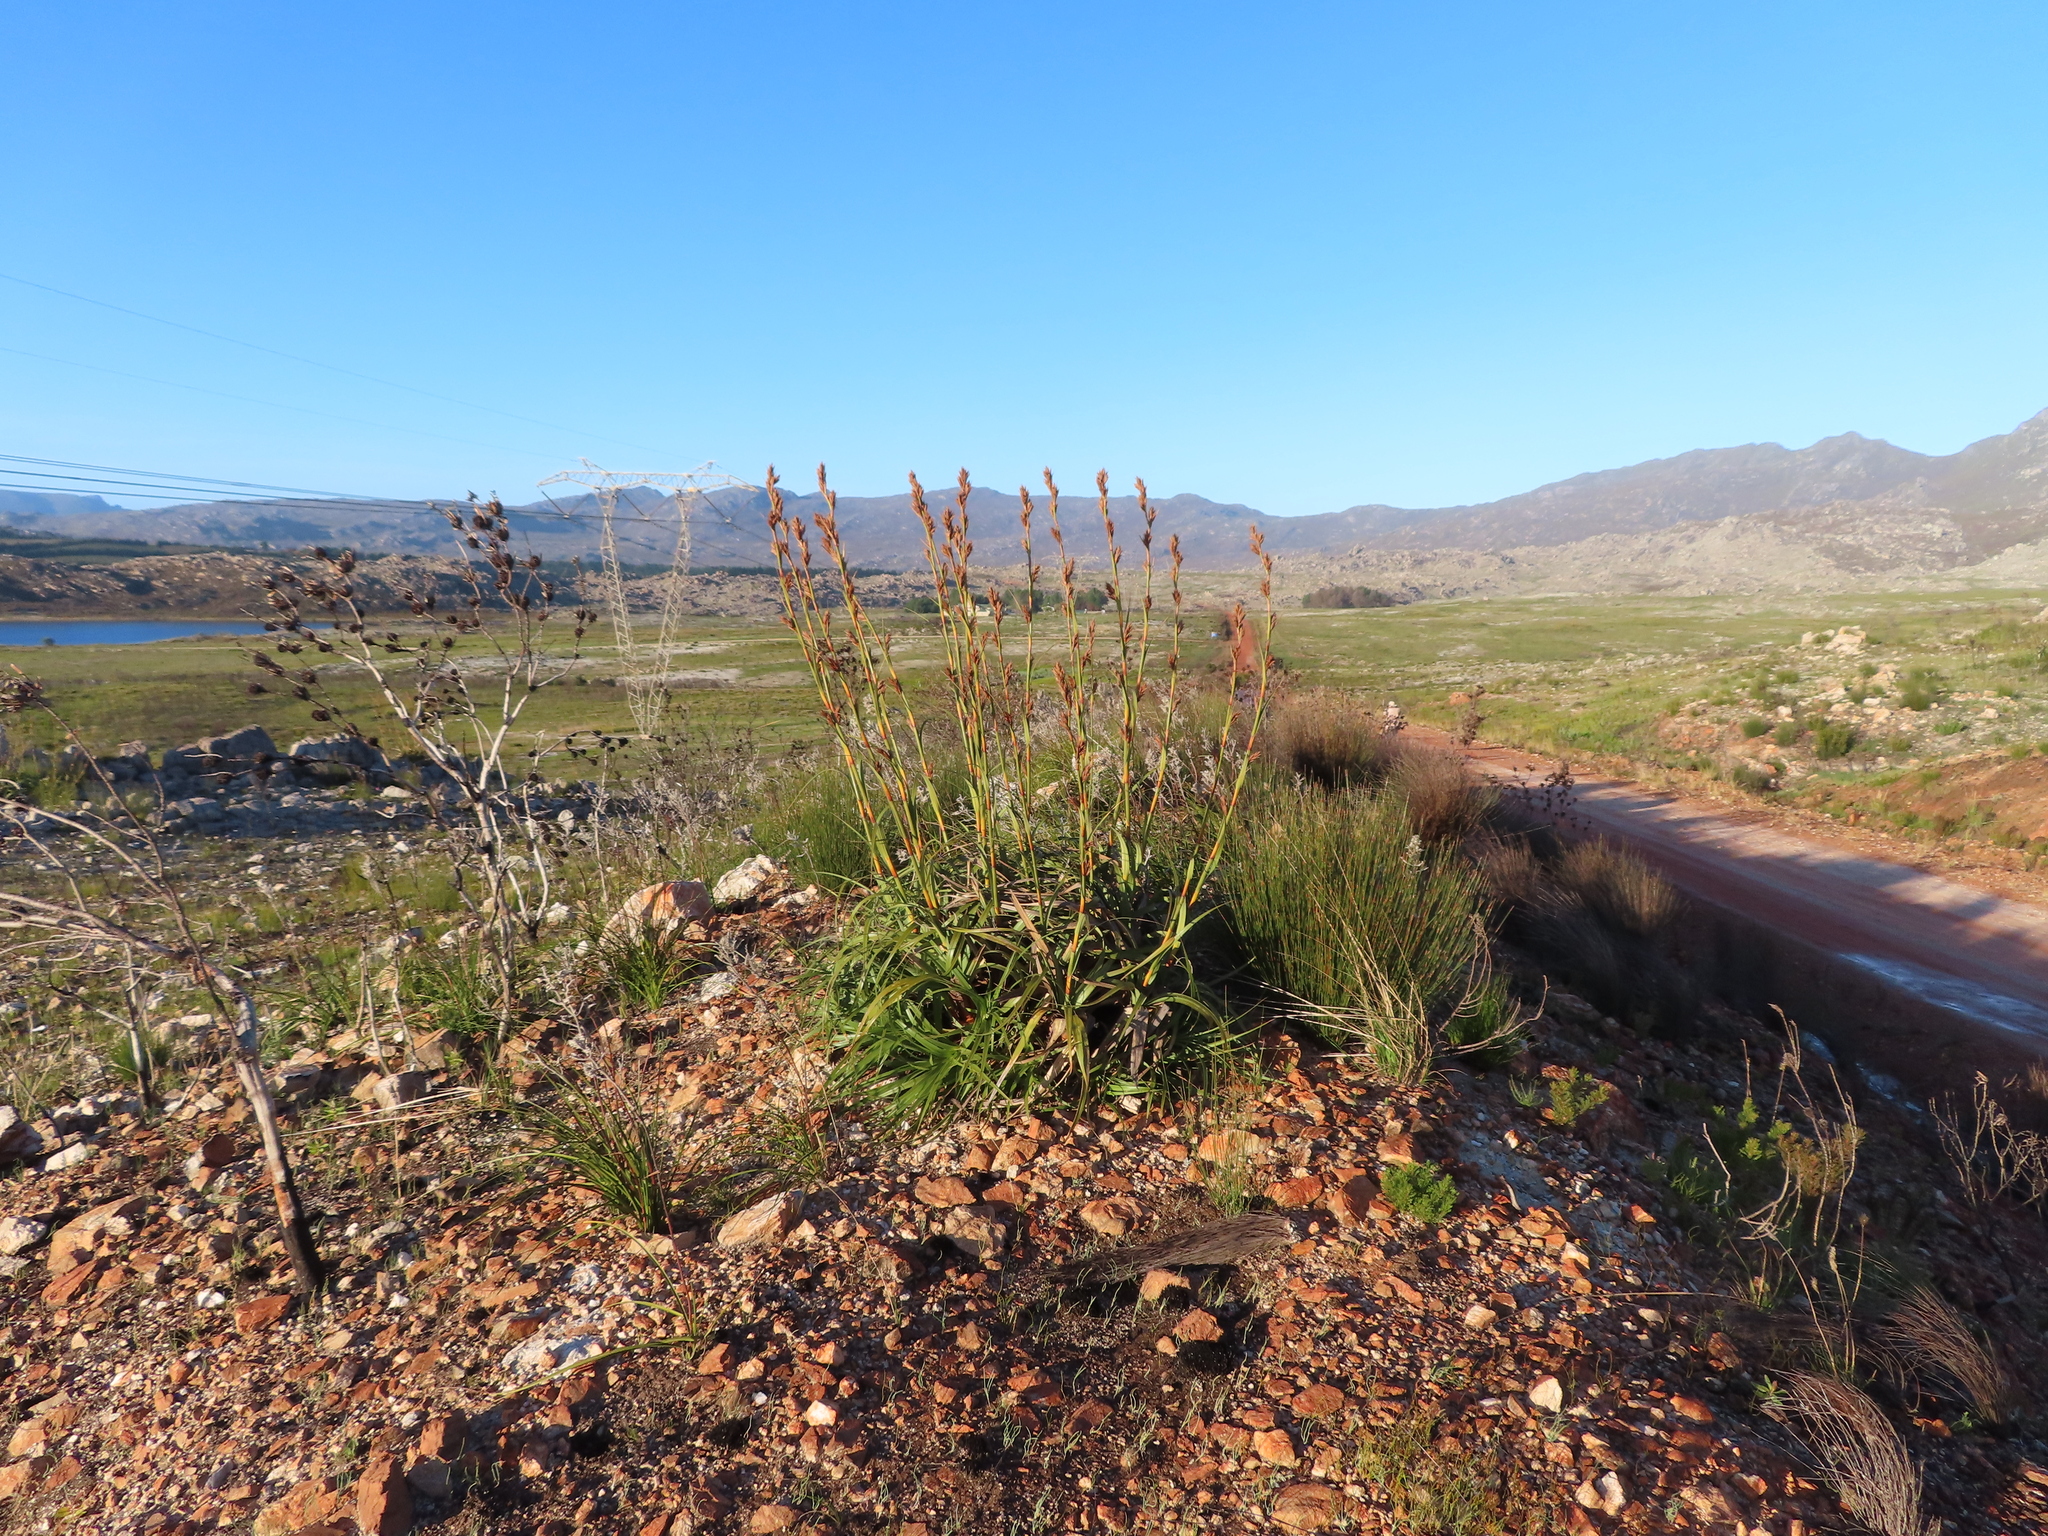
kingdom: Plantae
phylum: Tracheophyta
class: Liliopsida
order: Poales
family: Cyperaceae
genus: Tetraria
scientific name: Tetraria thermalis
